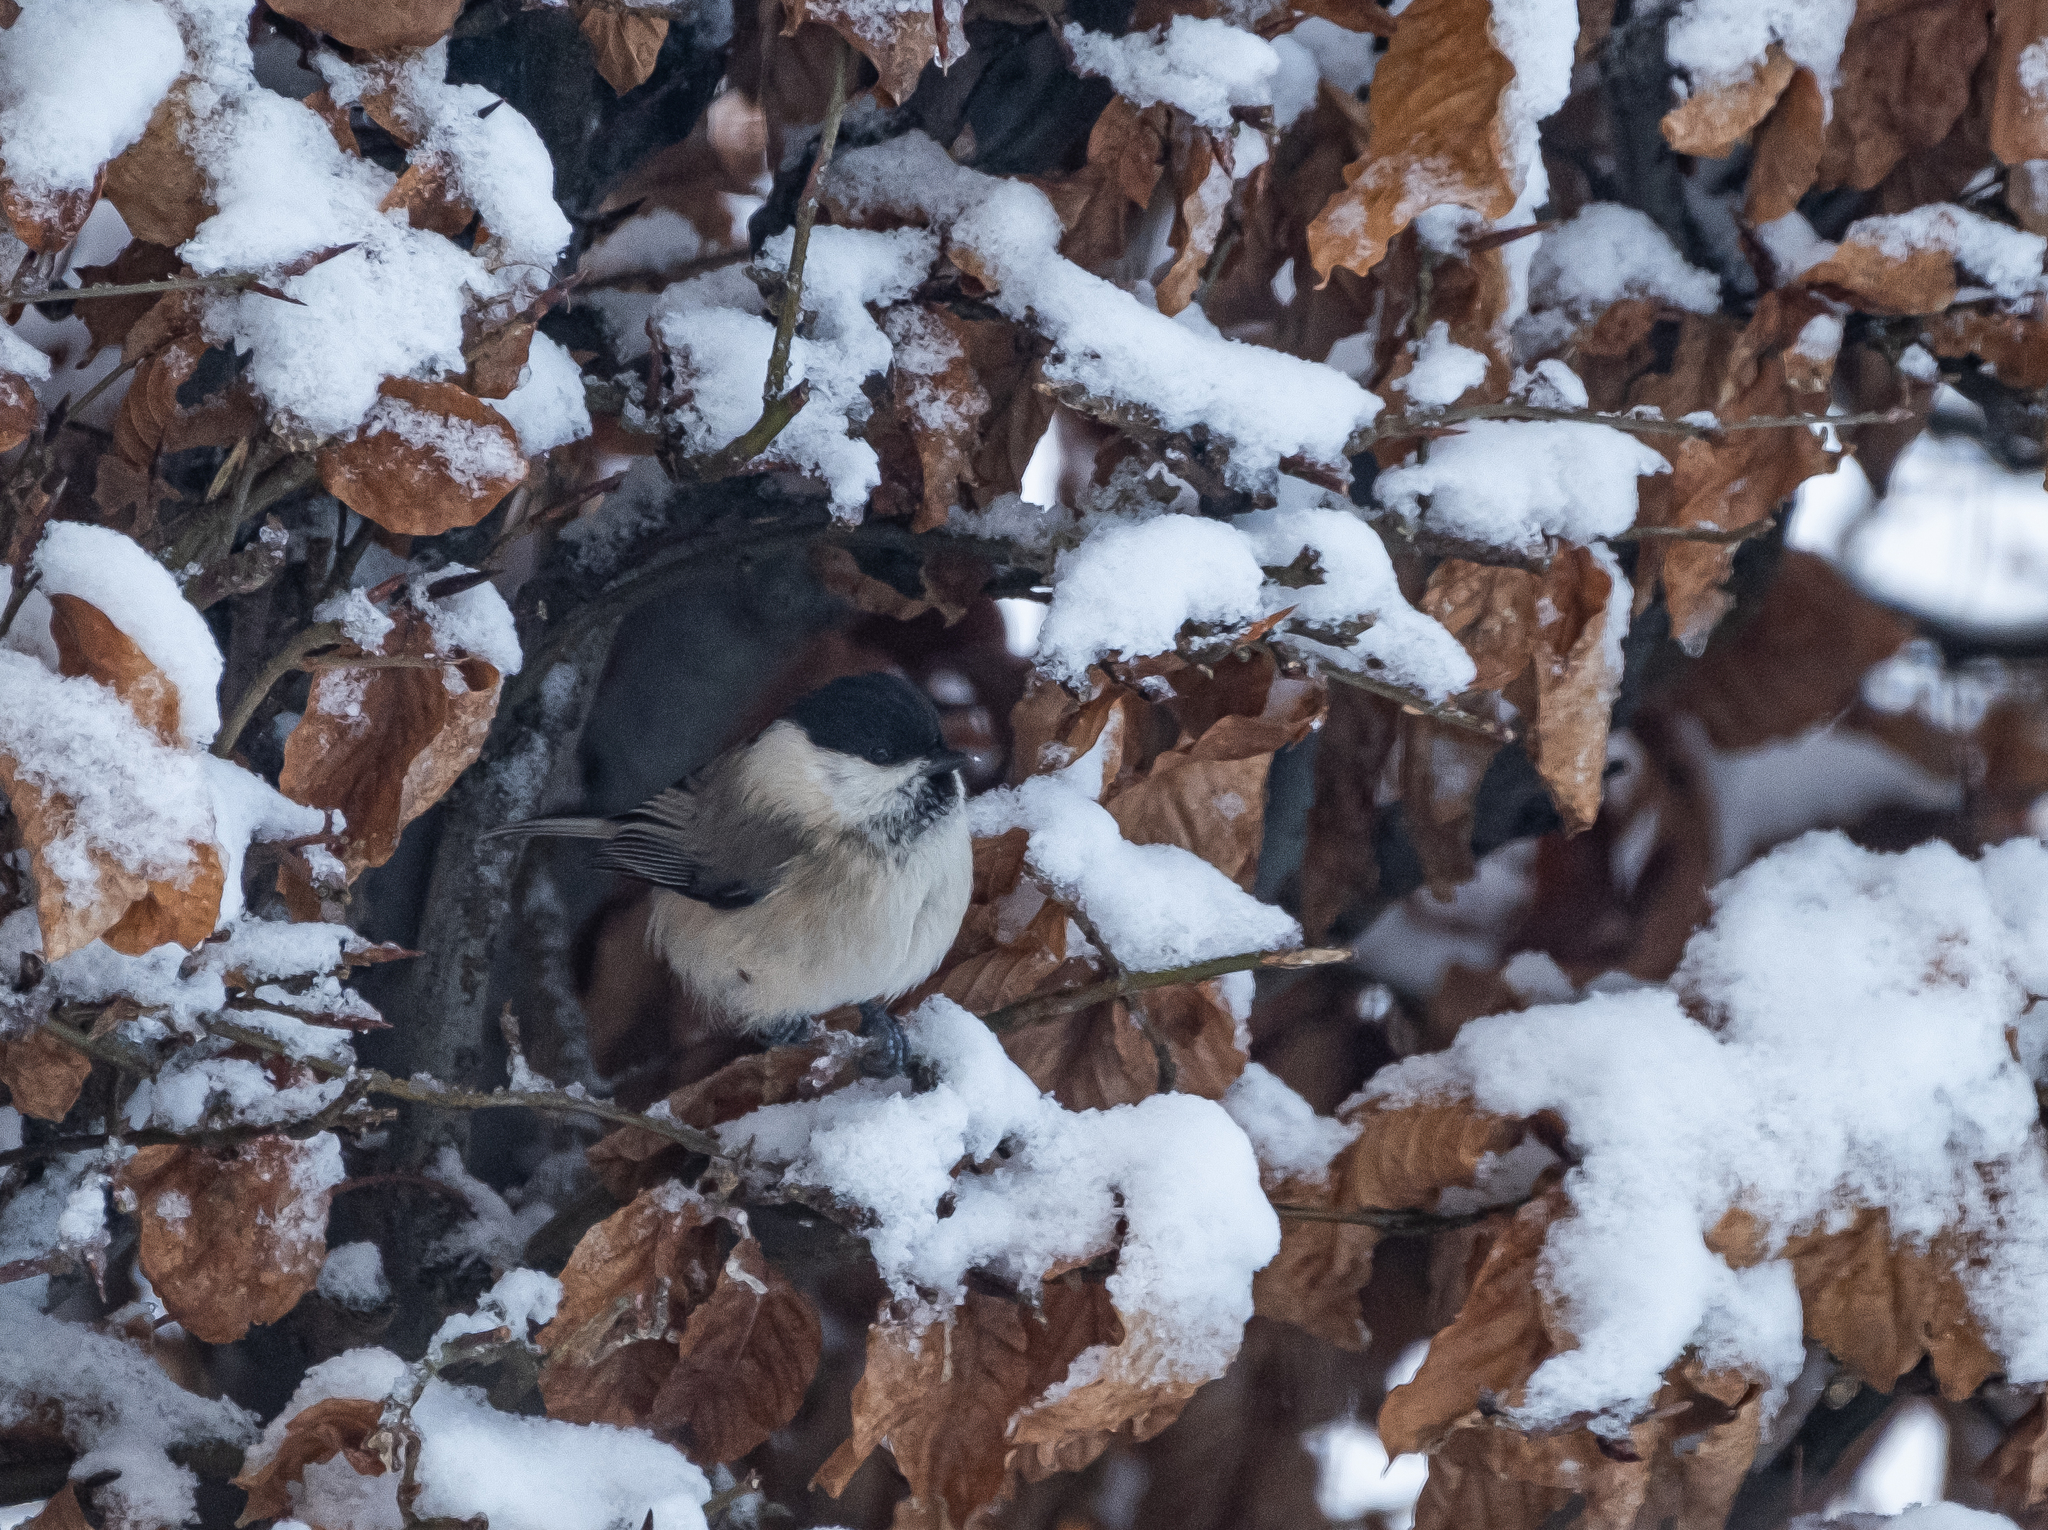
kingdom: Animalia
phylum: Chordata
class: Aves
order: Passeriformes
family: Paridae
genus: Poecile
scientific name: Poecile palustris
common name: Marsh tit
